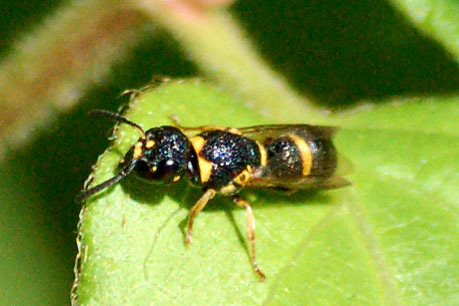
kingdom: Animalia
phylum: Arthropoda
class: Insecta
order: Hymenoptera
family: Eumenidae
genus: Parancistrocerus
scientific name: Parancistrocerus perennis
